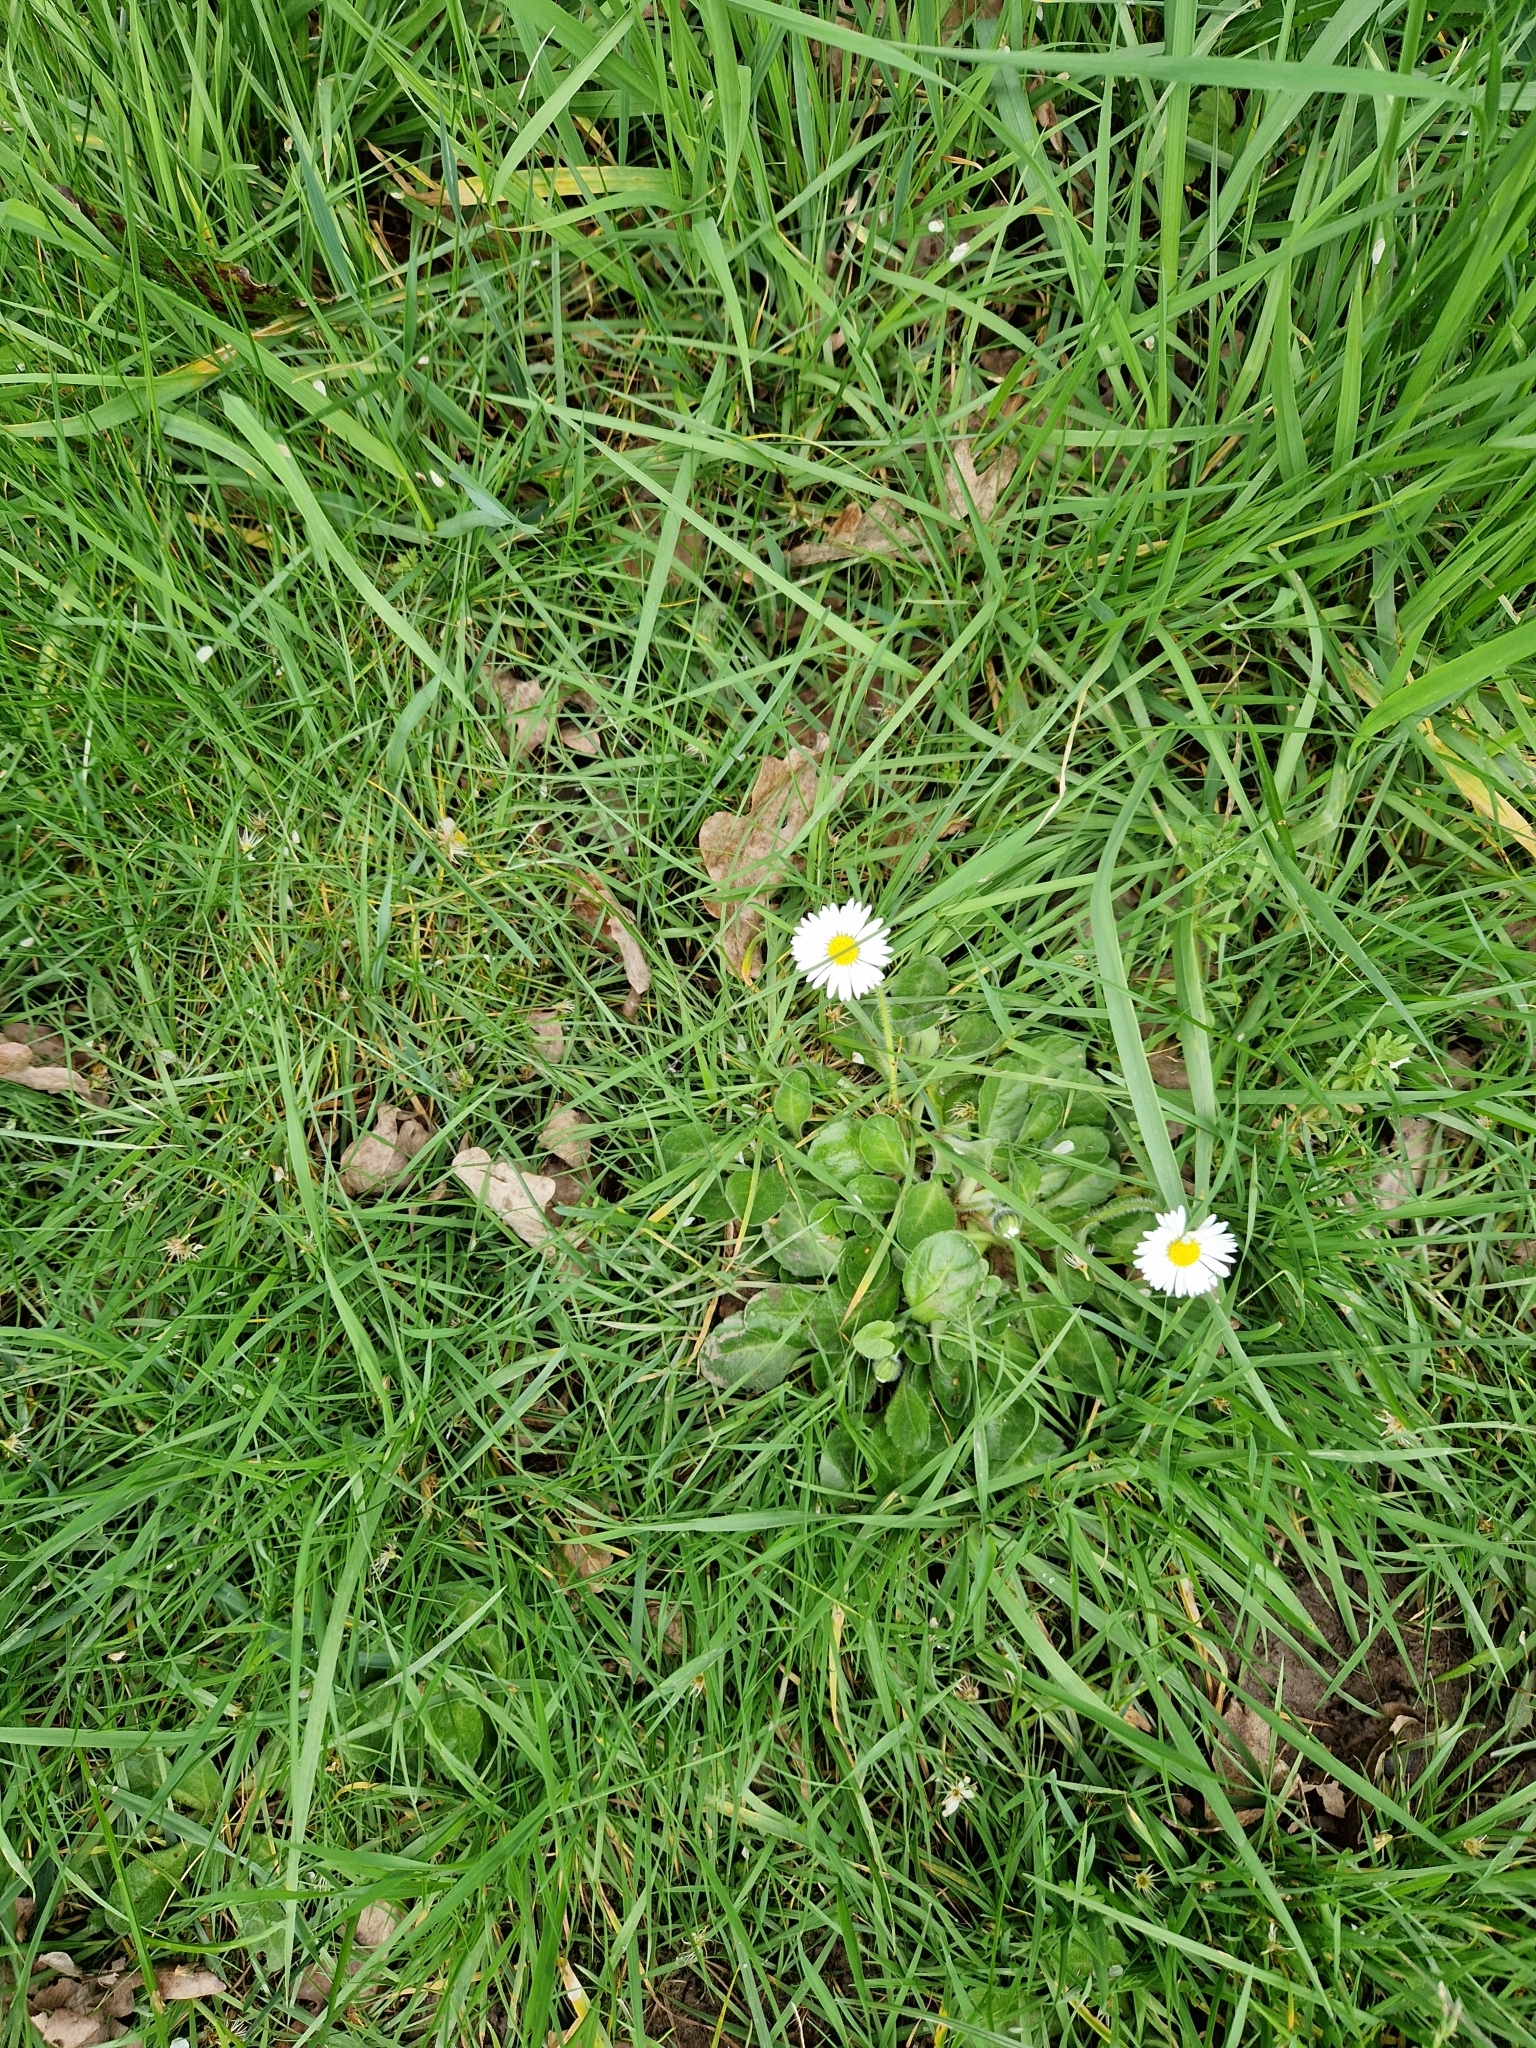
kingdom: Plantae
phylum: Tracheophyta
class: Magnoliopsida
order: Asterales
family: Asteraceae
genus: Bellis
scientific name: Bellis perennis
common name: Lawndaisy
